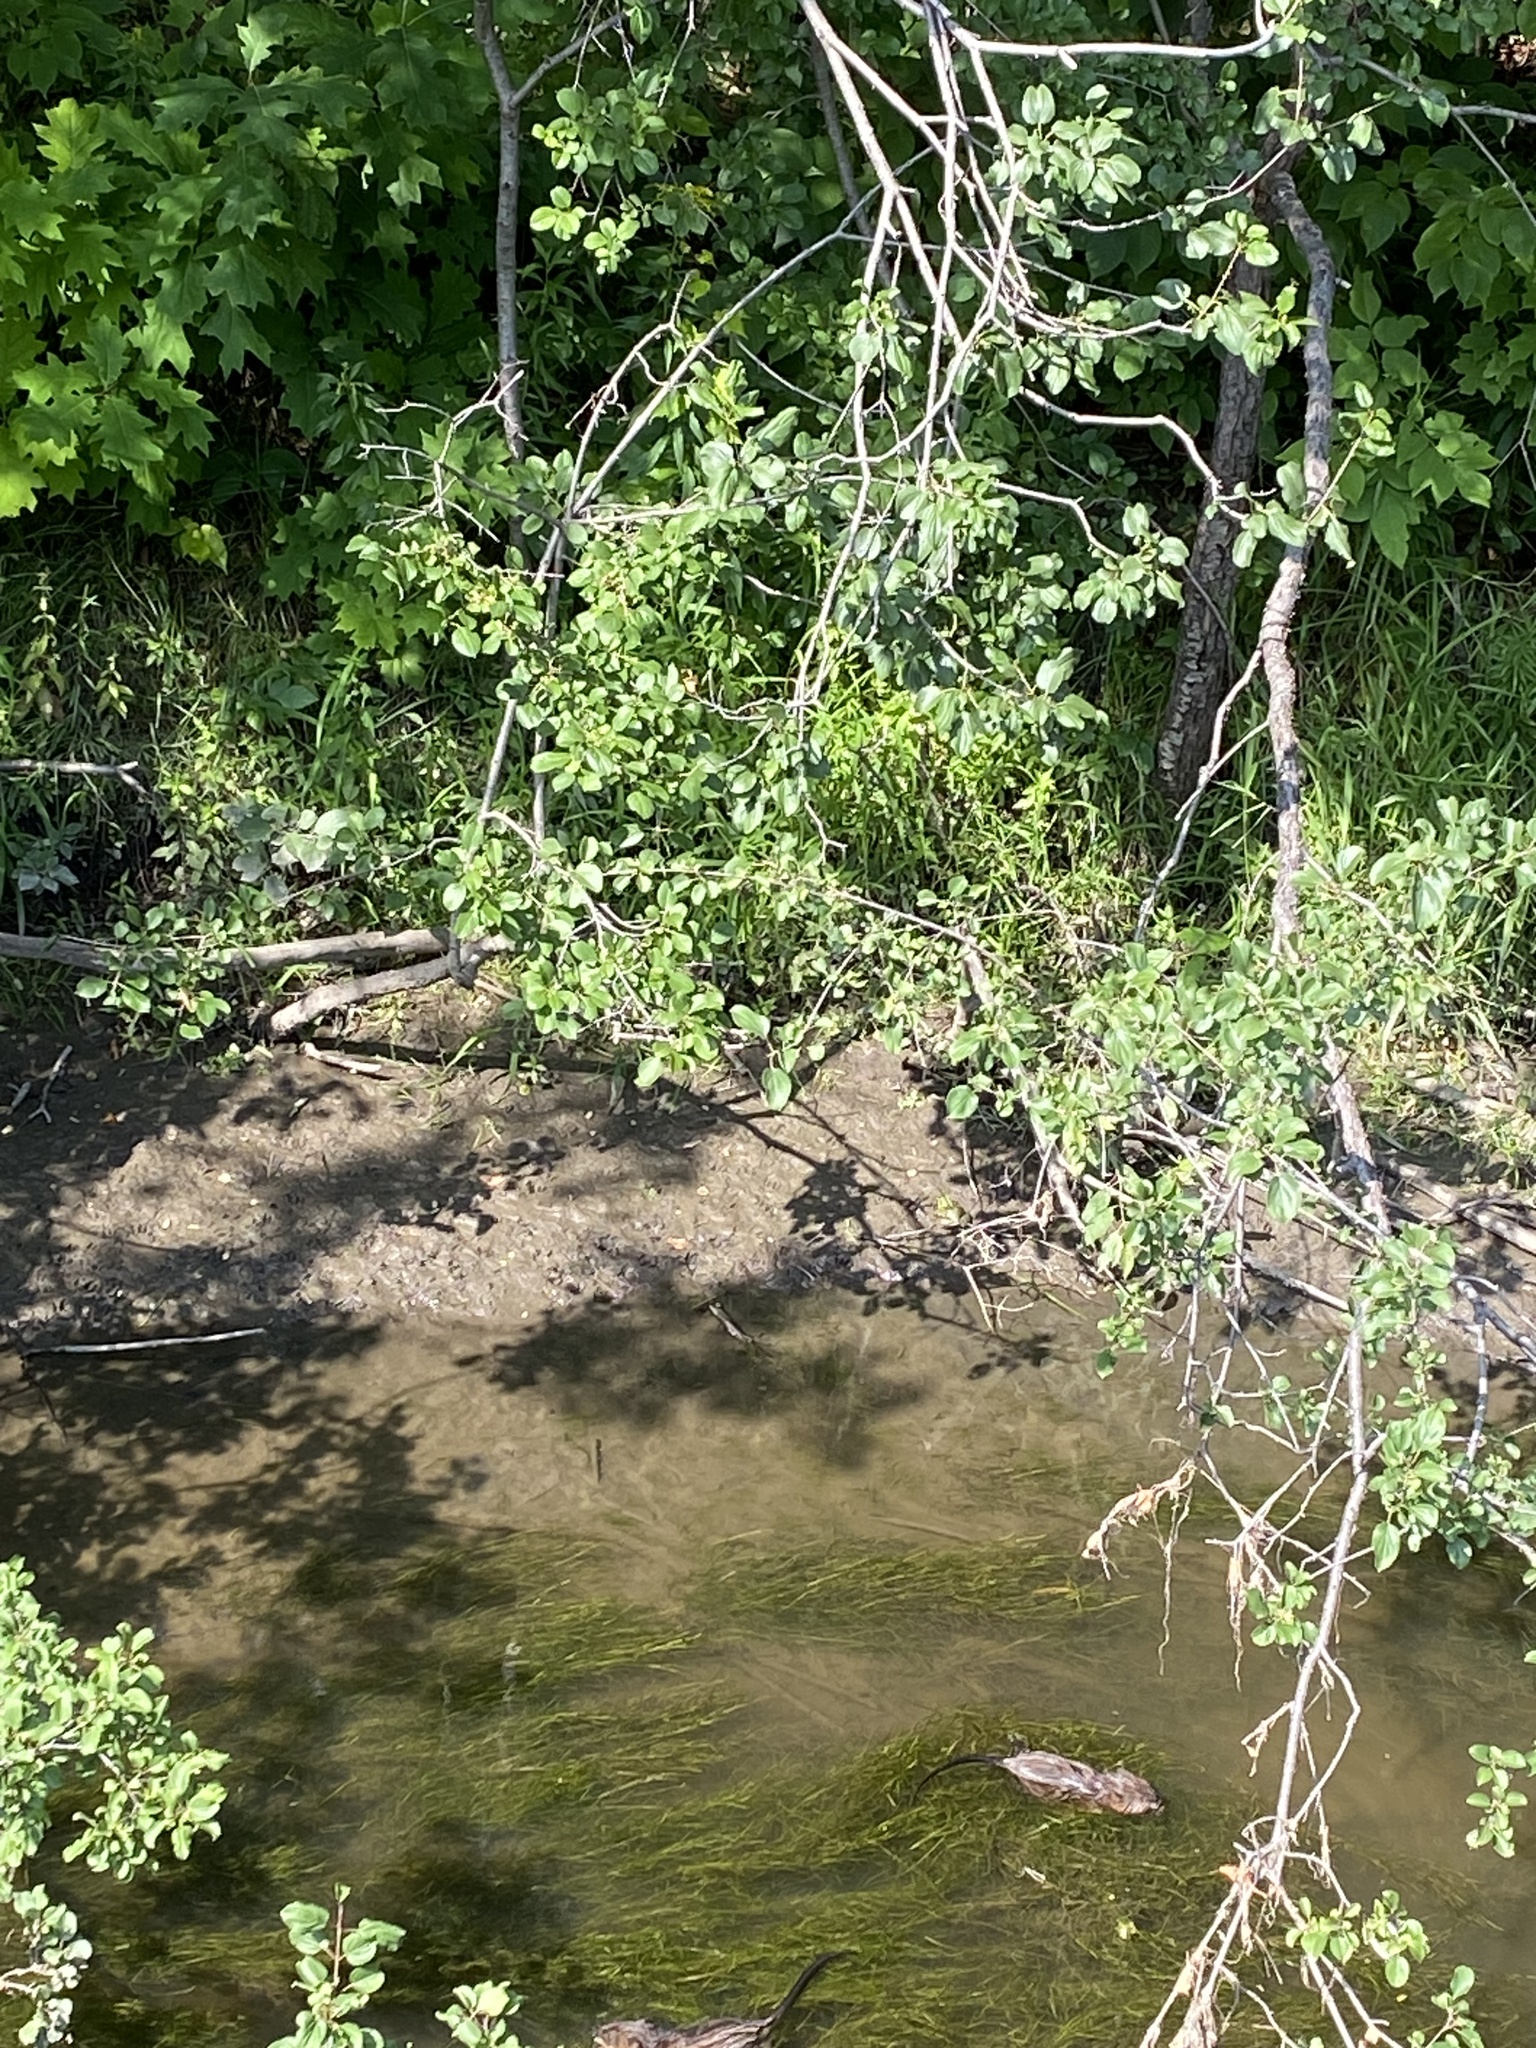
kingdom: Animalia
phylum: Chordata
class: Mammalia
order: Rodentia
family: Cricetidae
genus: Ondatra
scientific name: Ondatra zibethicus
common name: Muskrat
